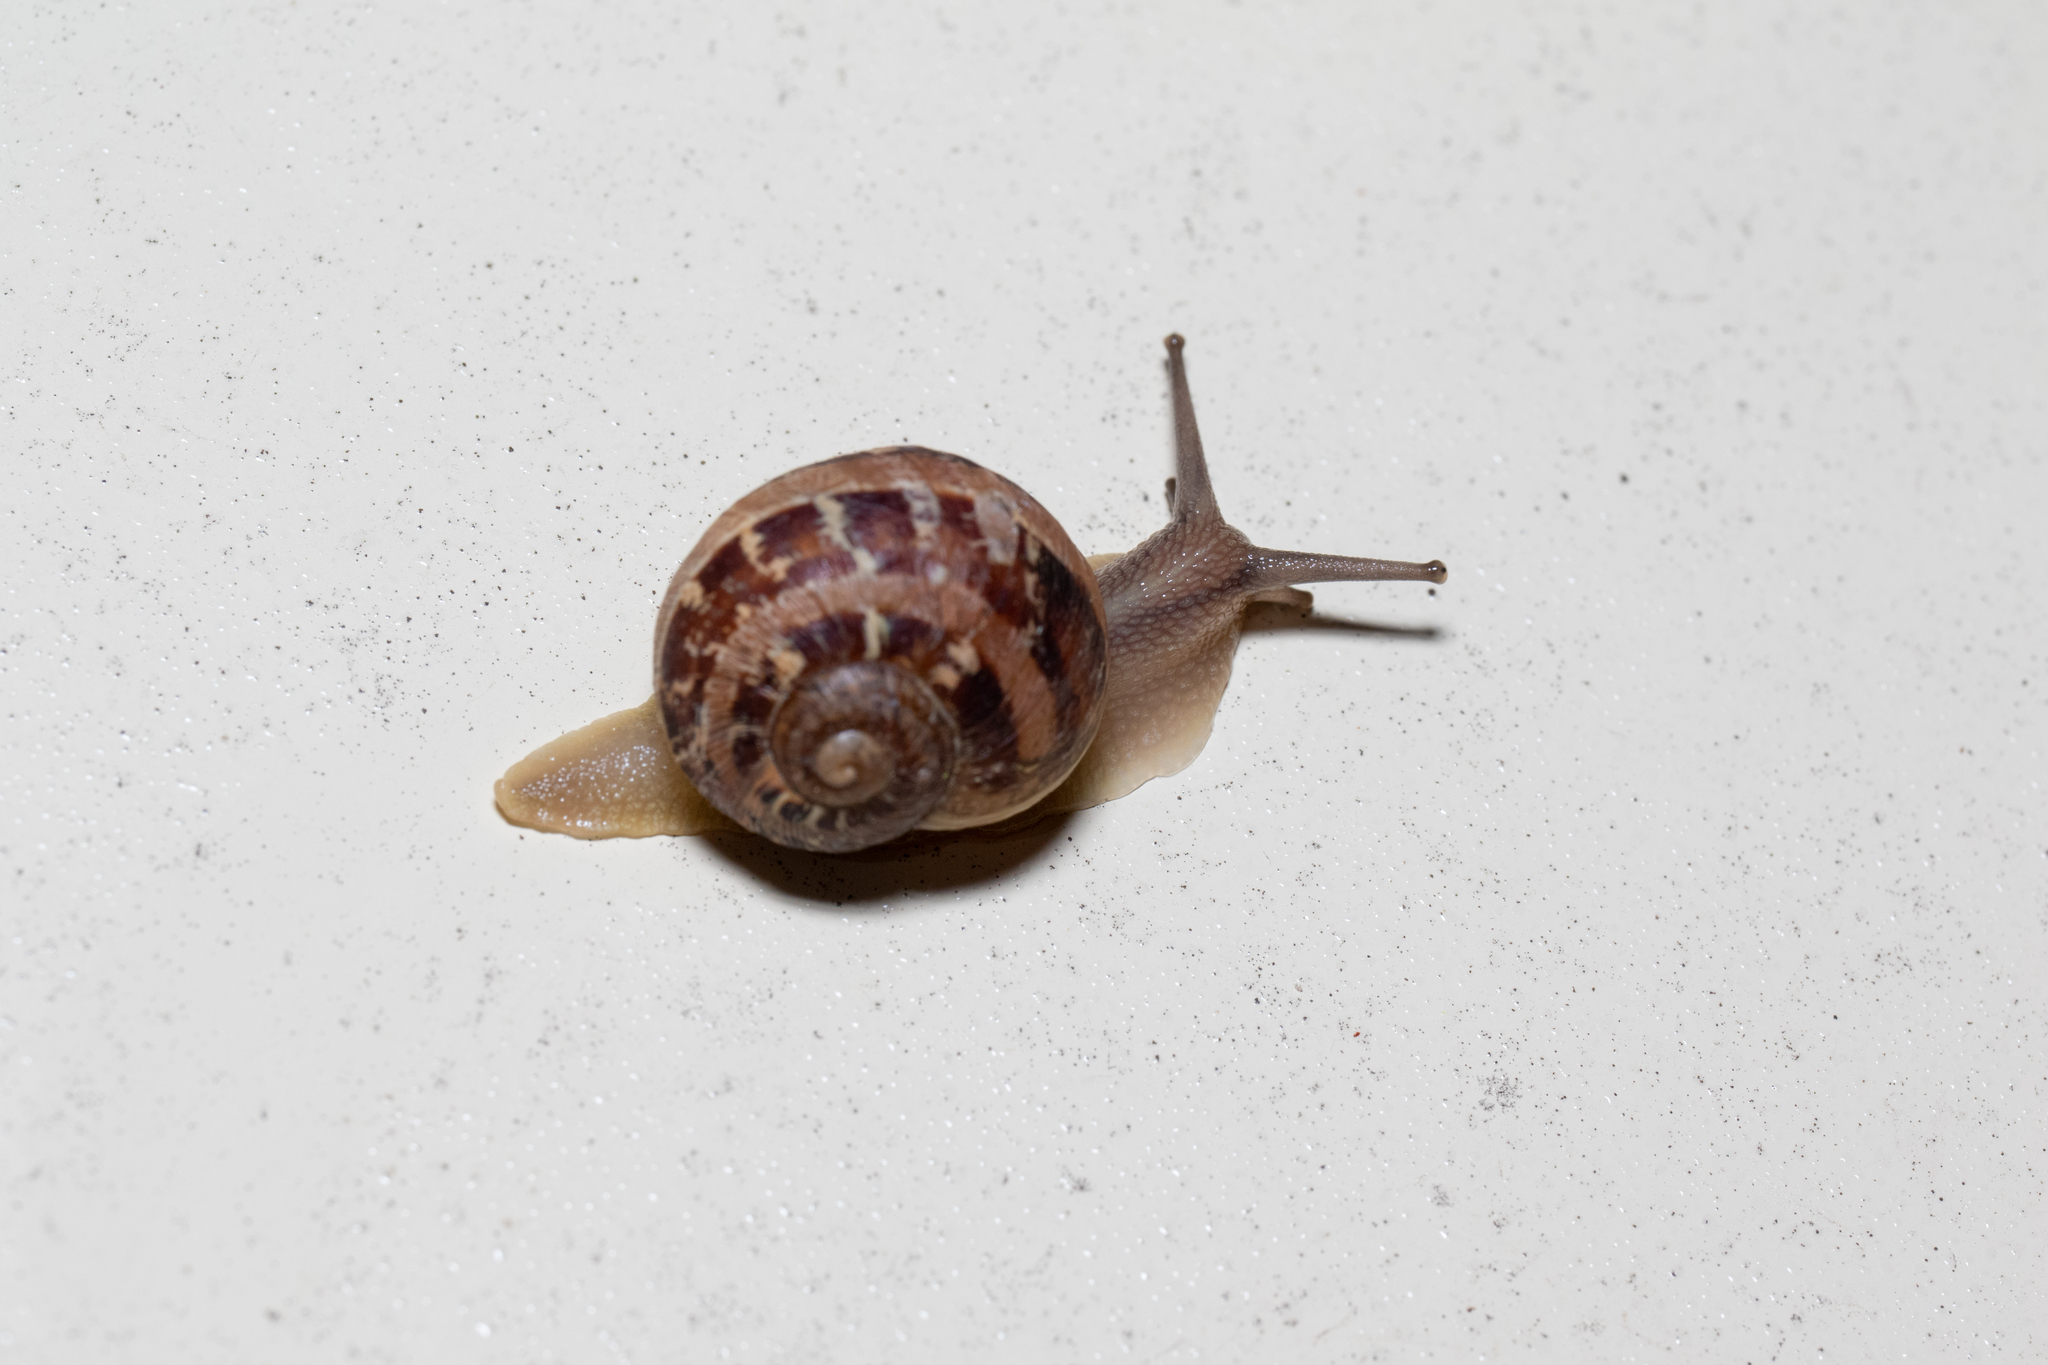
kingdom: Animalia
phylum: Mollusca
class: Gastropoda
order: Stylommatophora
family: Helicidae
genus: Cornu
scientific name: Cornu aspersum
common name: Brown garden snail
